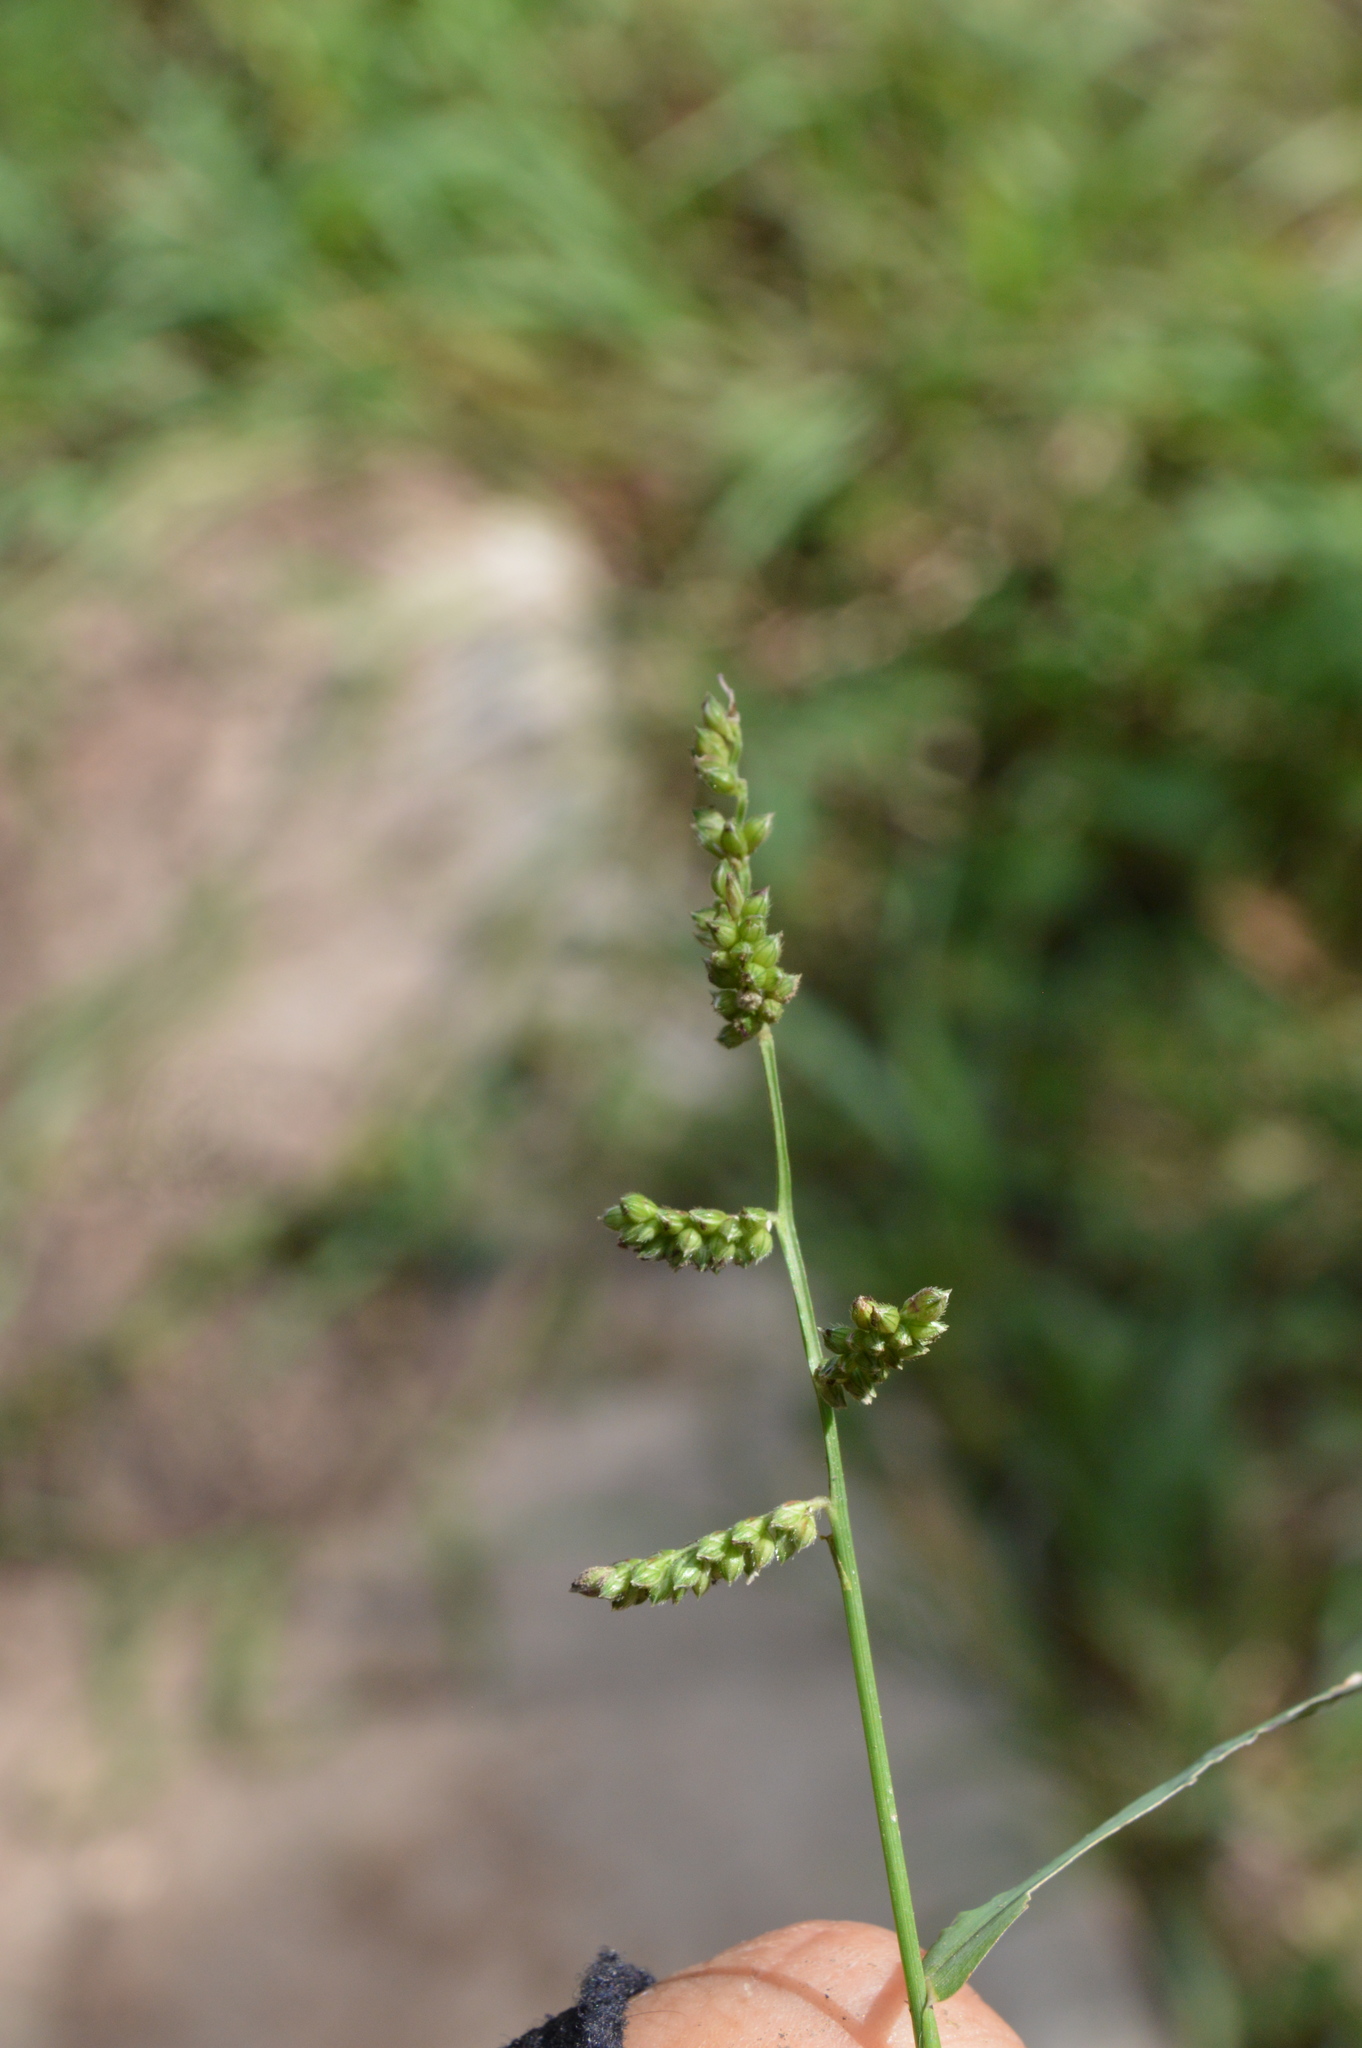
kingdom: Plantae
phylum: Tracheophyta
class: Liliopsida
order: Poales
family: Poaceae
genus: Echinochloa
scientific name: Echinochloa colonum
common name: Jungle rice
